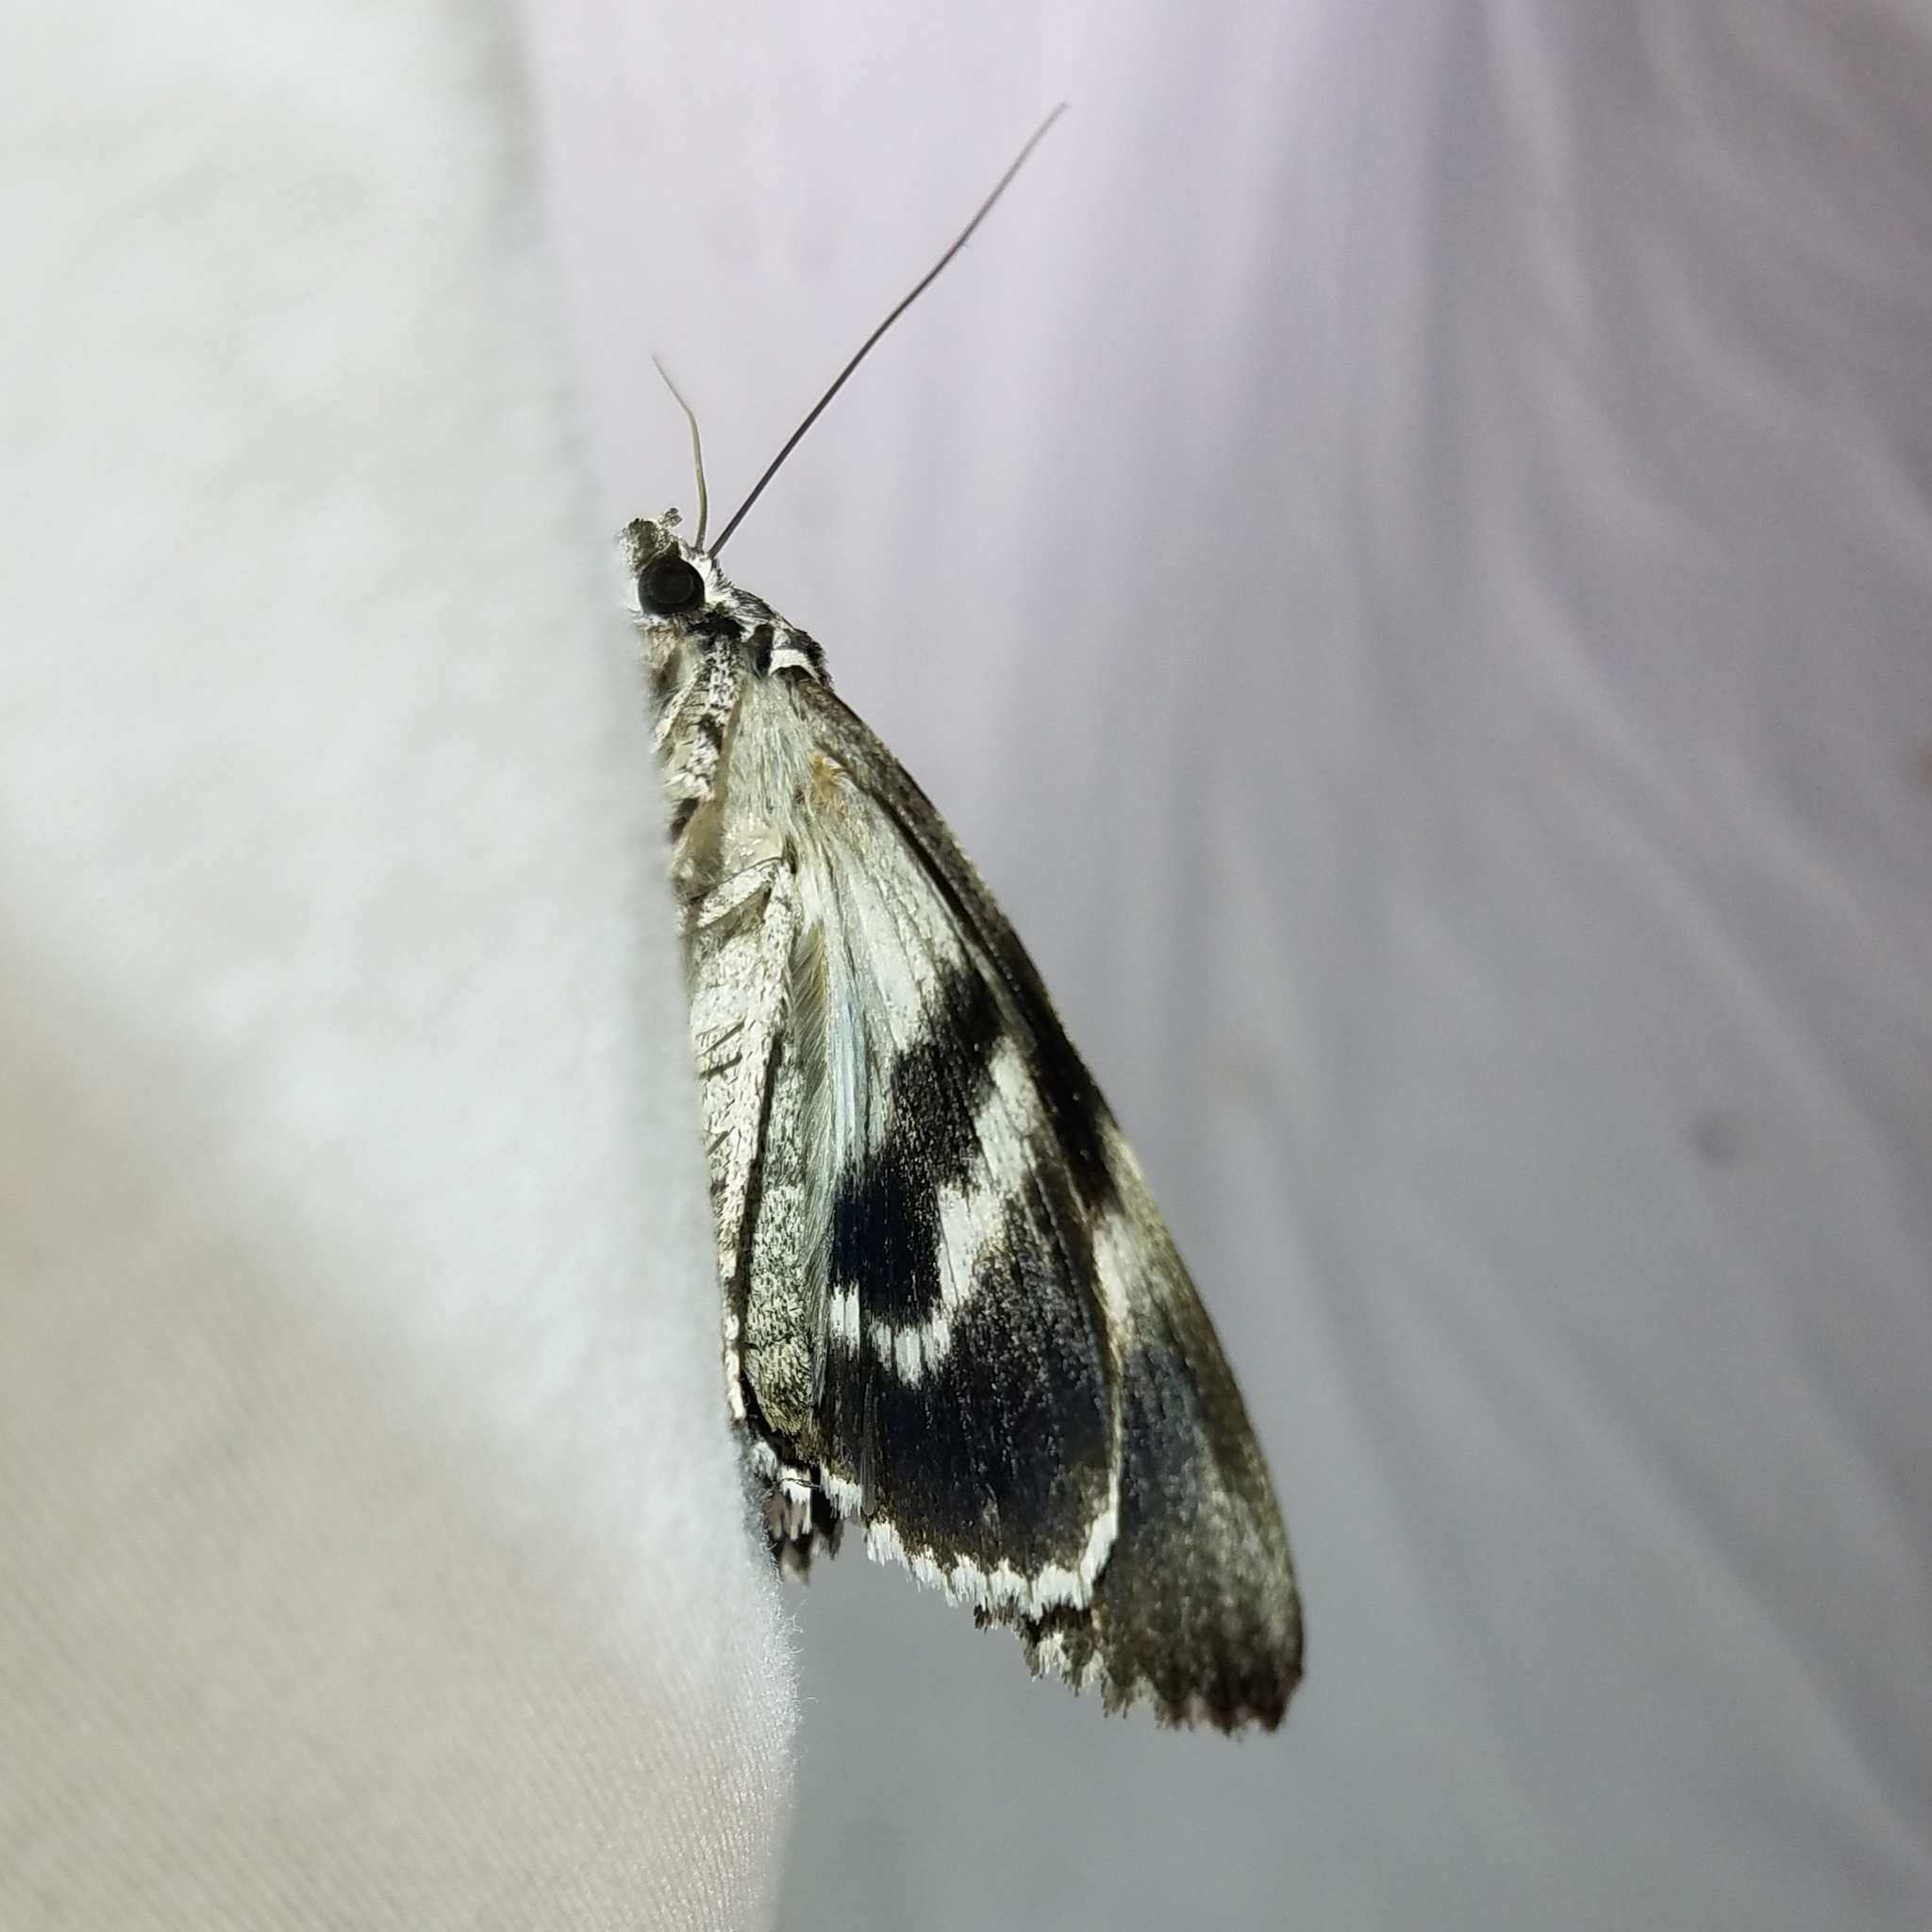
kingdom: Animalia
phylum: Arthropoda
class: Insecta
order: Lepidoptera
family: Erebidae
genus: Catocala
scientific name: Catocala ulalume
